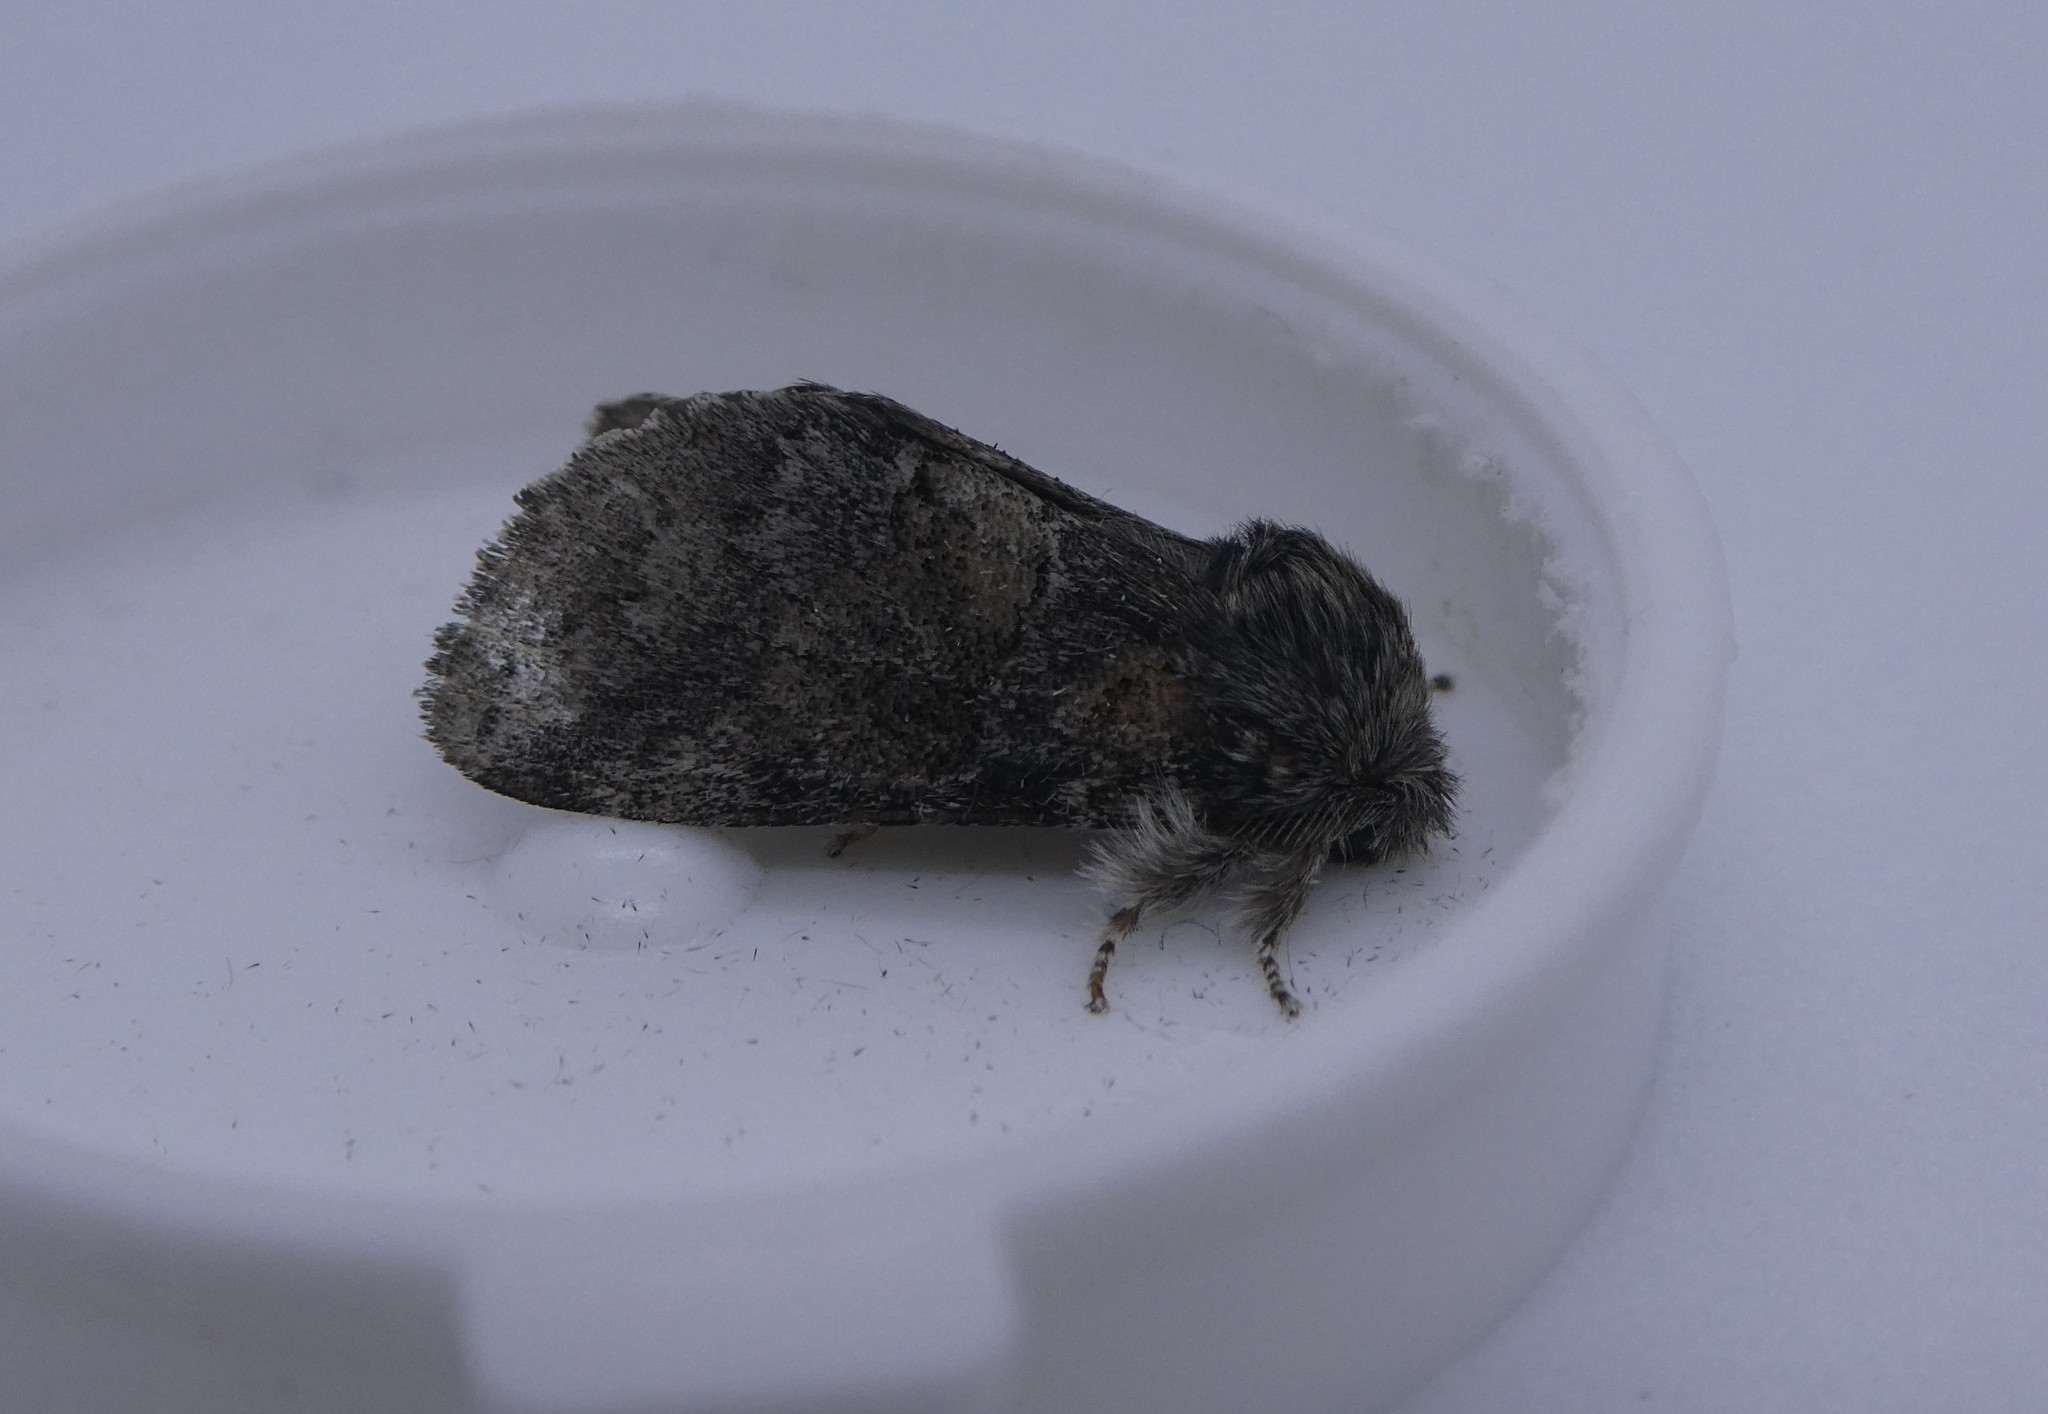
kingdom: Animalia
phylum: Arthropoda
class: Insecta
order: Lepidoptera
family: Notodontidae
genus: Gluphisia
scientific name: Gluphisia septentrionis
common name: Common gluphisia
